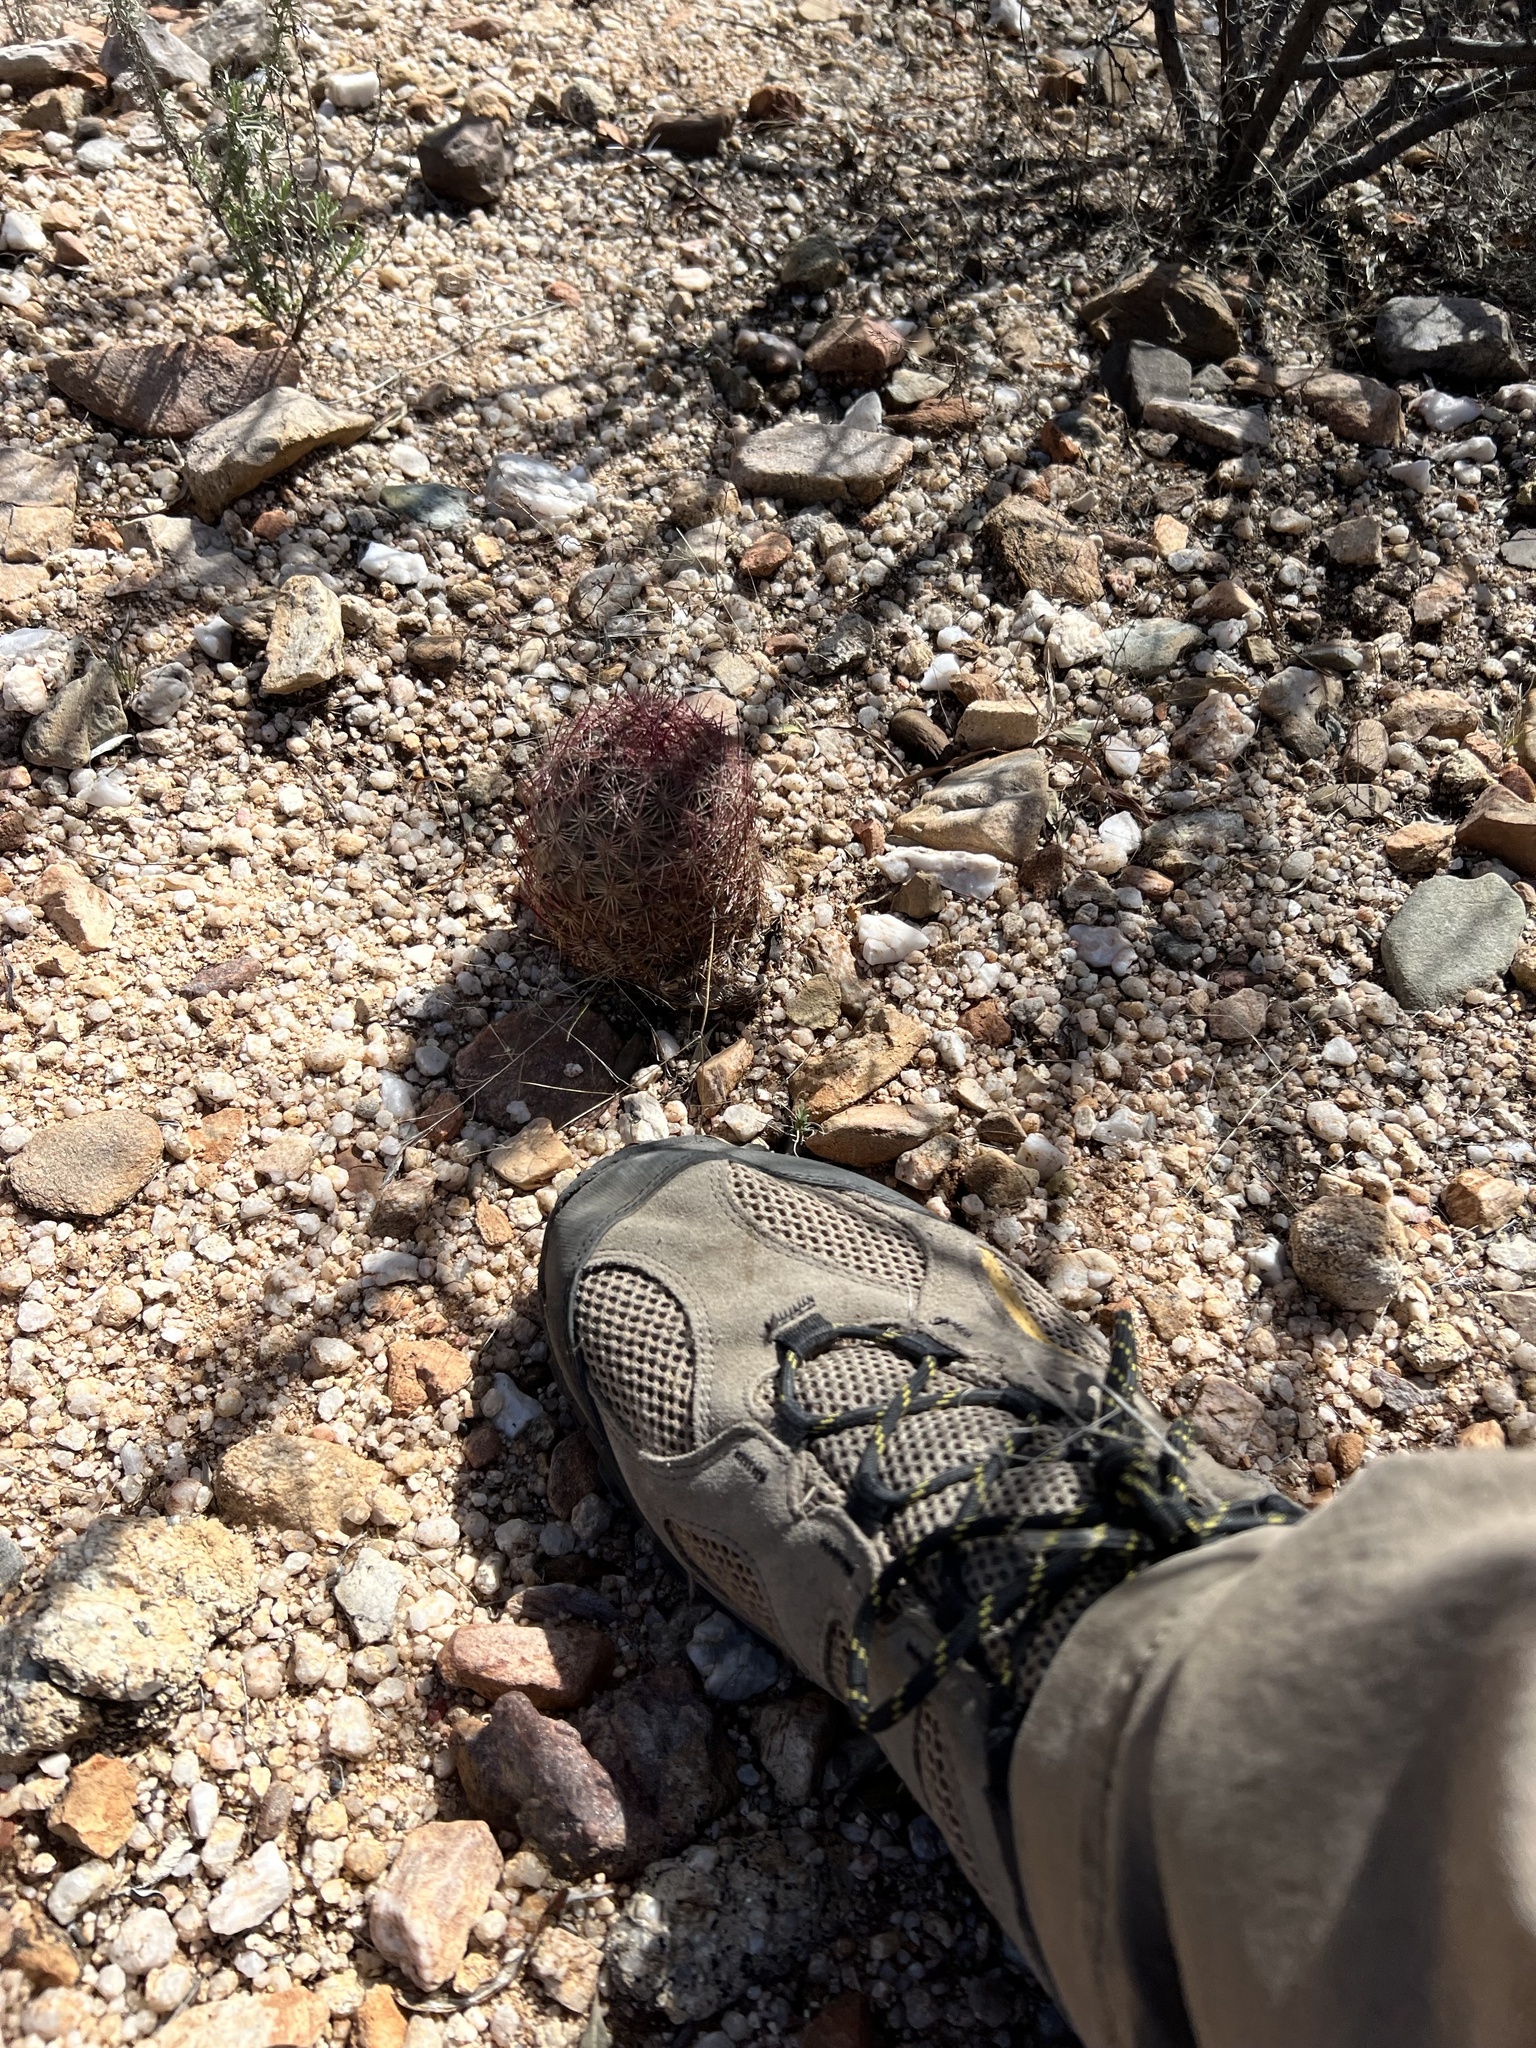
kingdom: Plantae
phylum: Tracheophyta
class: Magnoliopsida
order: Caryophyllales
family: Cactaceae
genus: Sclerocactus
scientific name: Sclerocactus johnsonii
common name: Eight-spine fishhook cactus
